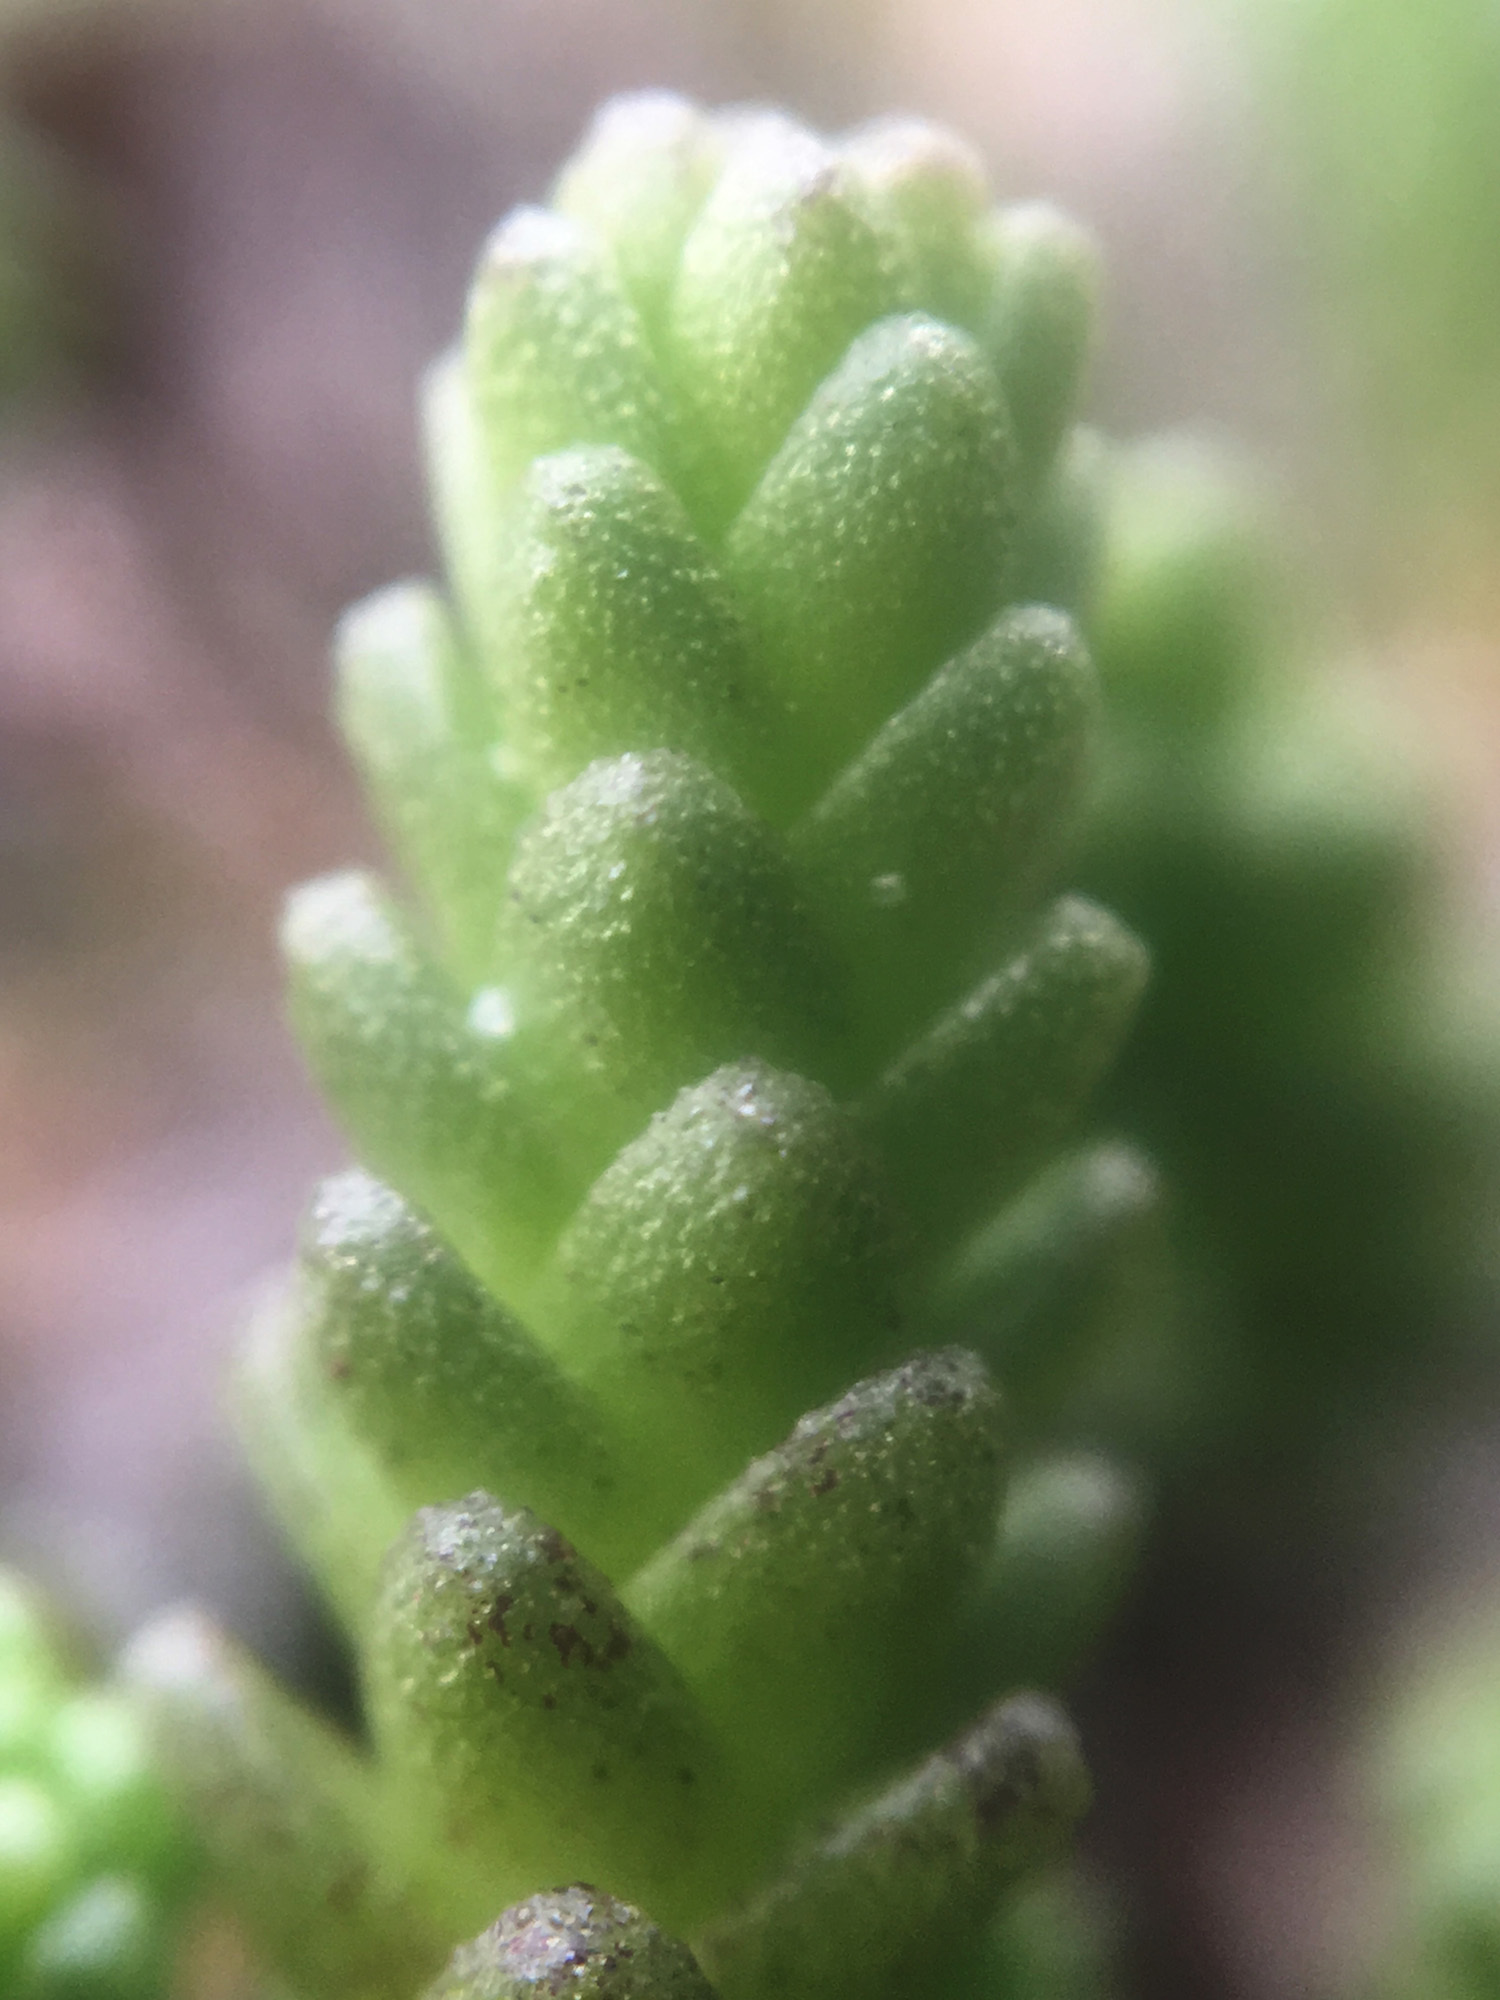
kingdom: Plantae
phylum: Tracheophyta
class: Magnoliopsida
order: Saxifragales
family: Crassulaceae
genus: Sedum
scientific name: Sedum acre
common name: Biting stonecrop
